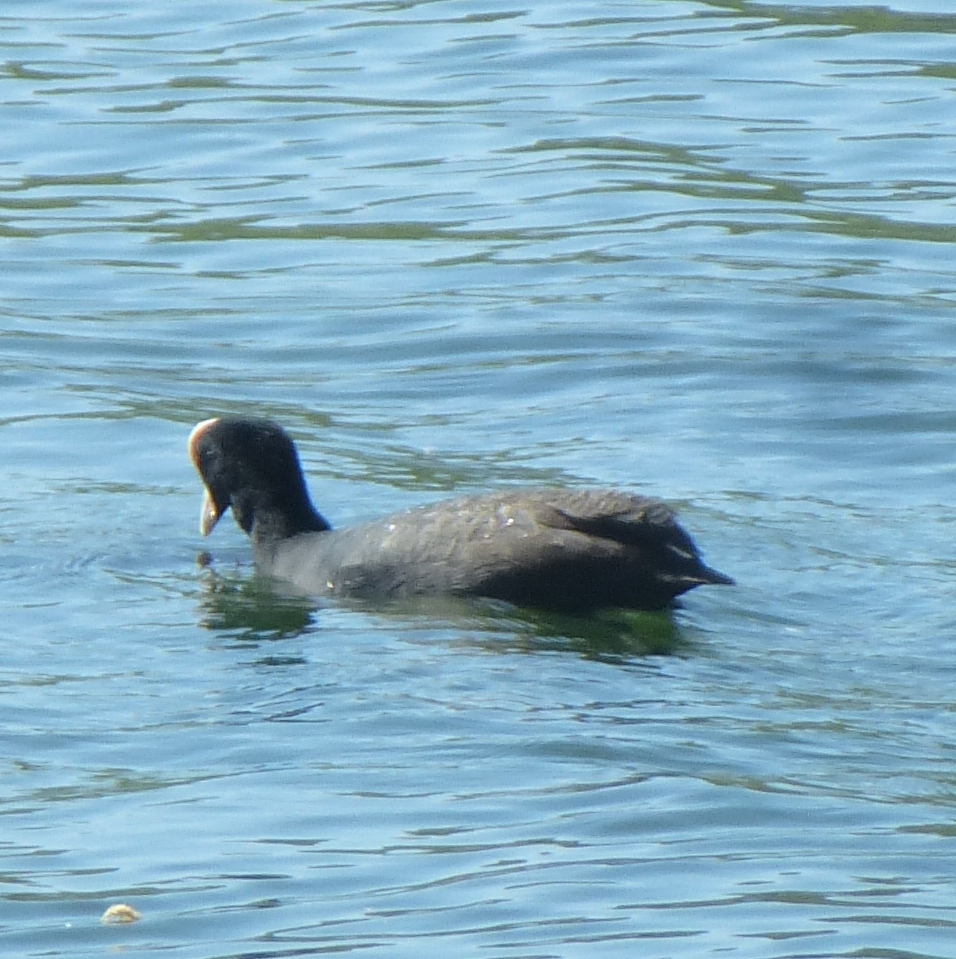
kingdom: Animalia
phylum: Chordata
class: Aves
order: Gruiformes
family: Rallidae
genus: Fulica
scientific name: Fulica atra
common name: Eurasian coot
